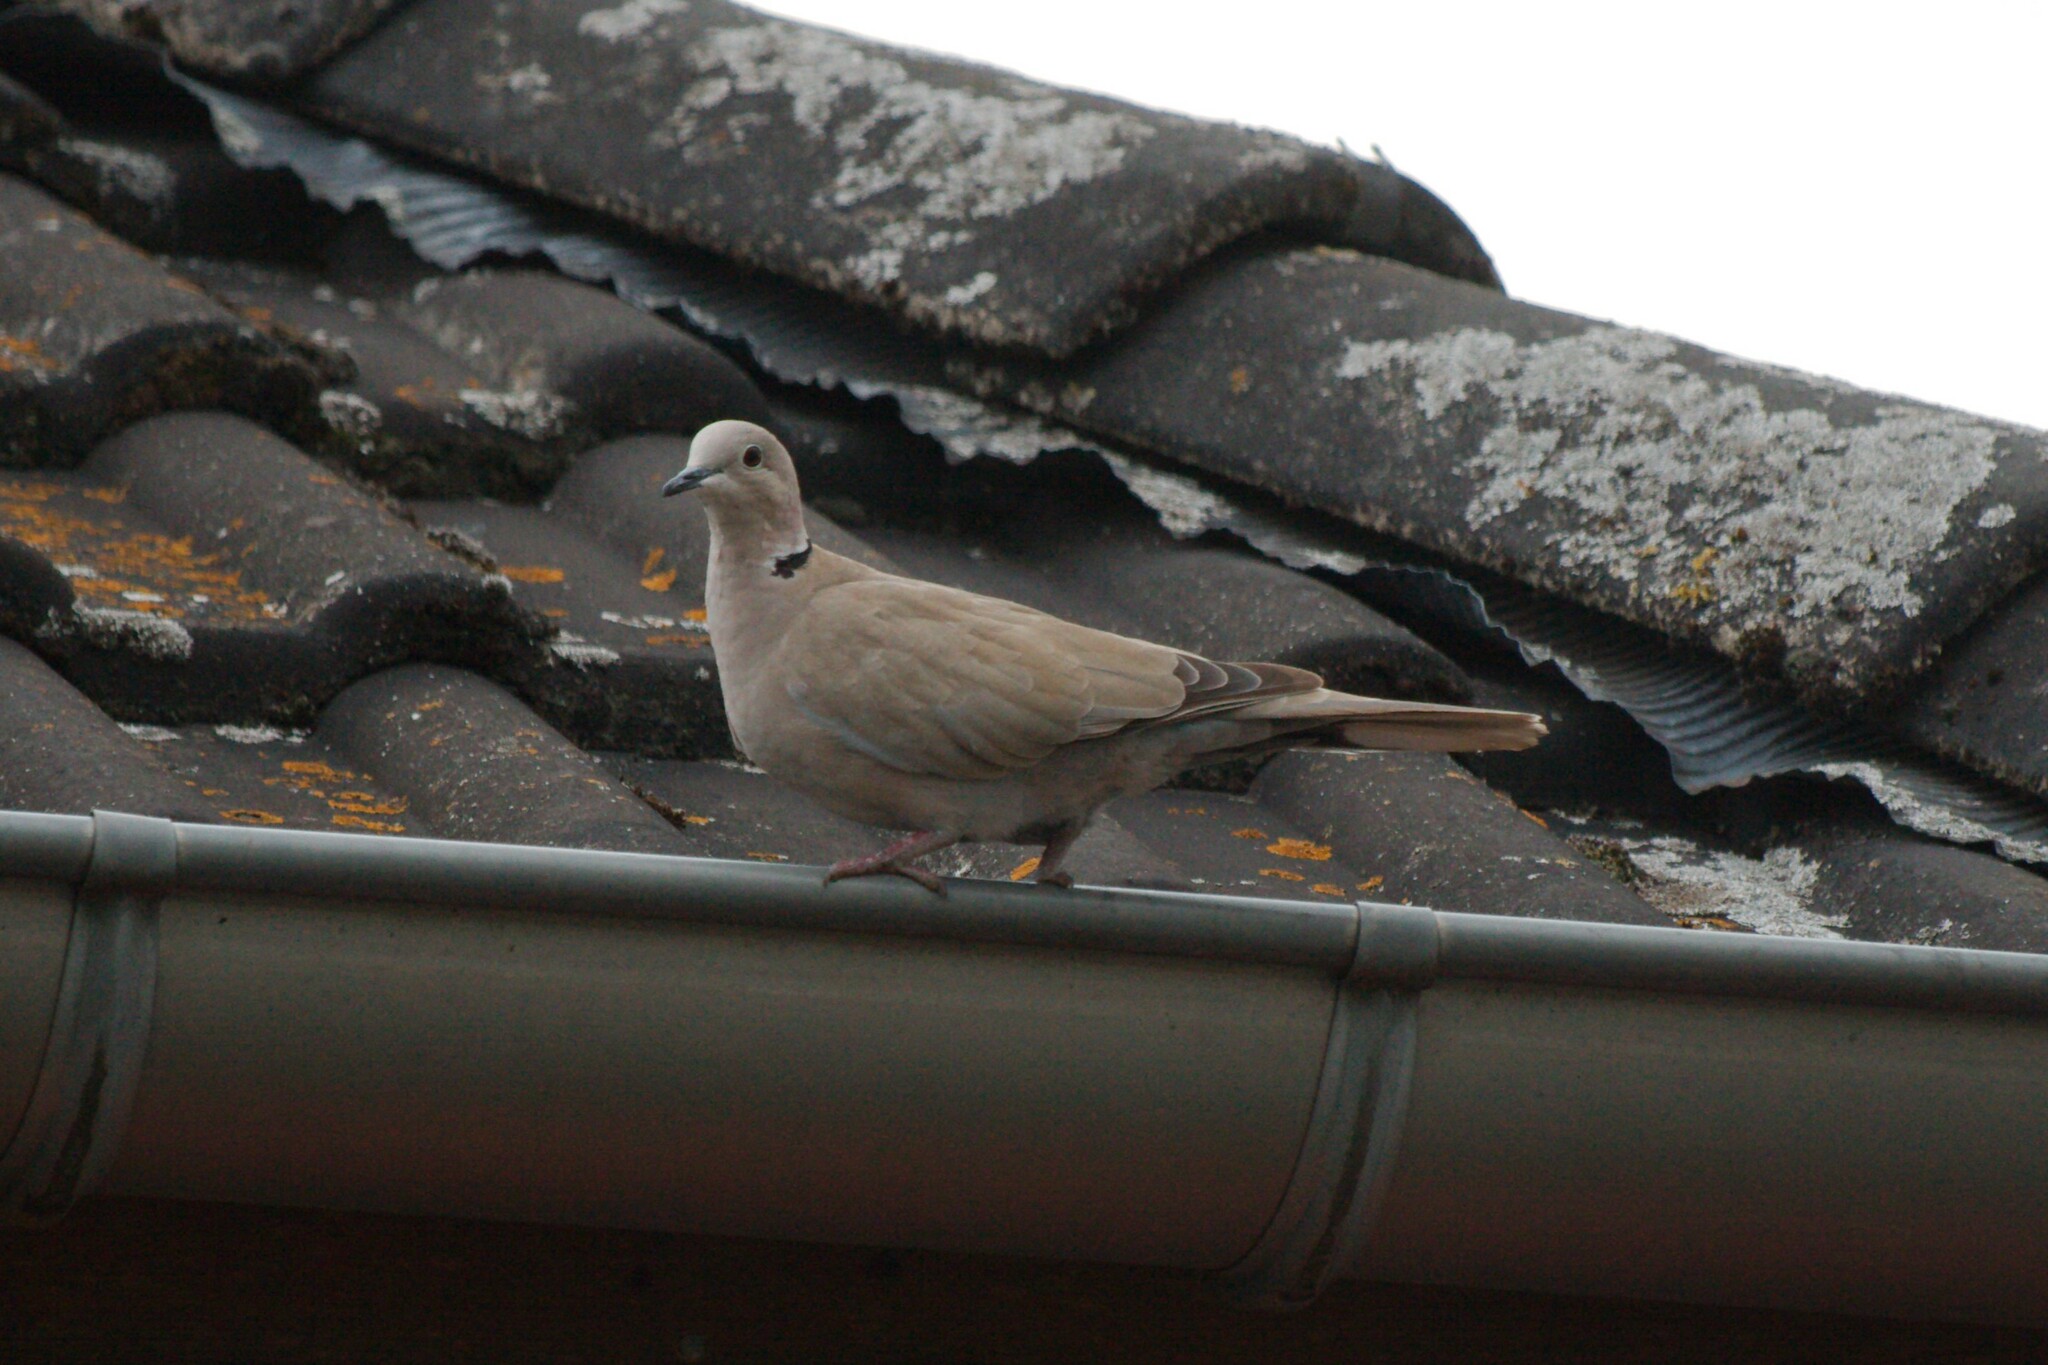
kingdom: Animalia
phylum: Chordata
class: Aves
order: Columbiformes
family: Columbidae
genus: Streptopelia
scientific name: Streptopelia decaocto
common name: Eurasian collared dove
